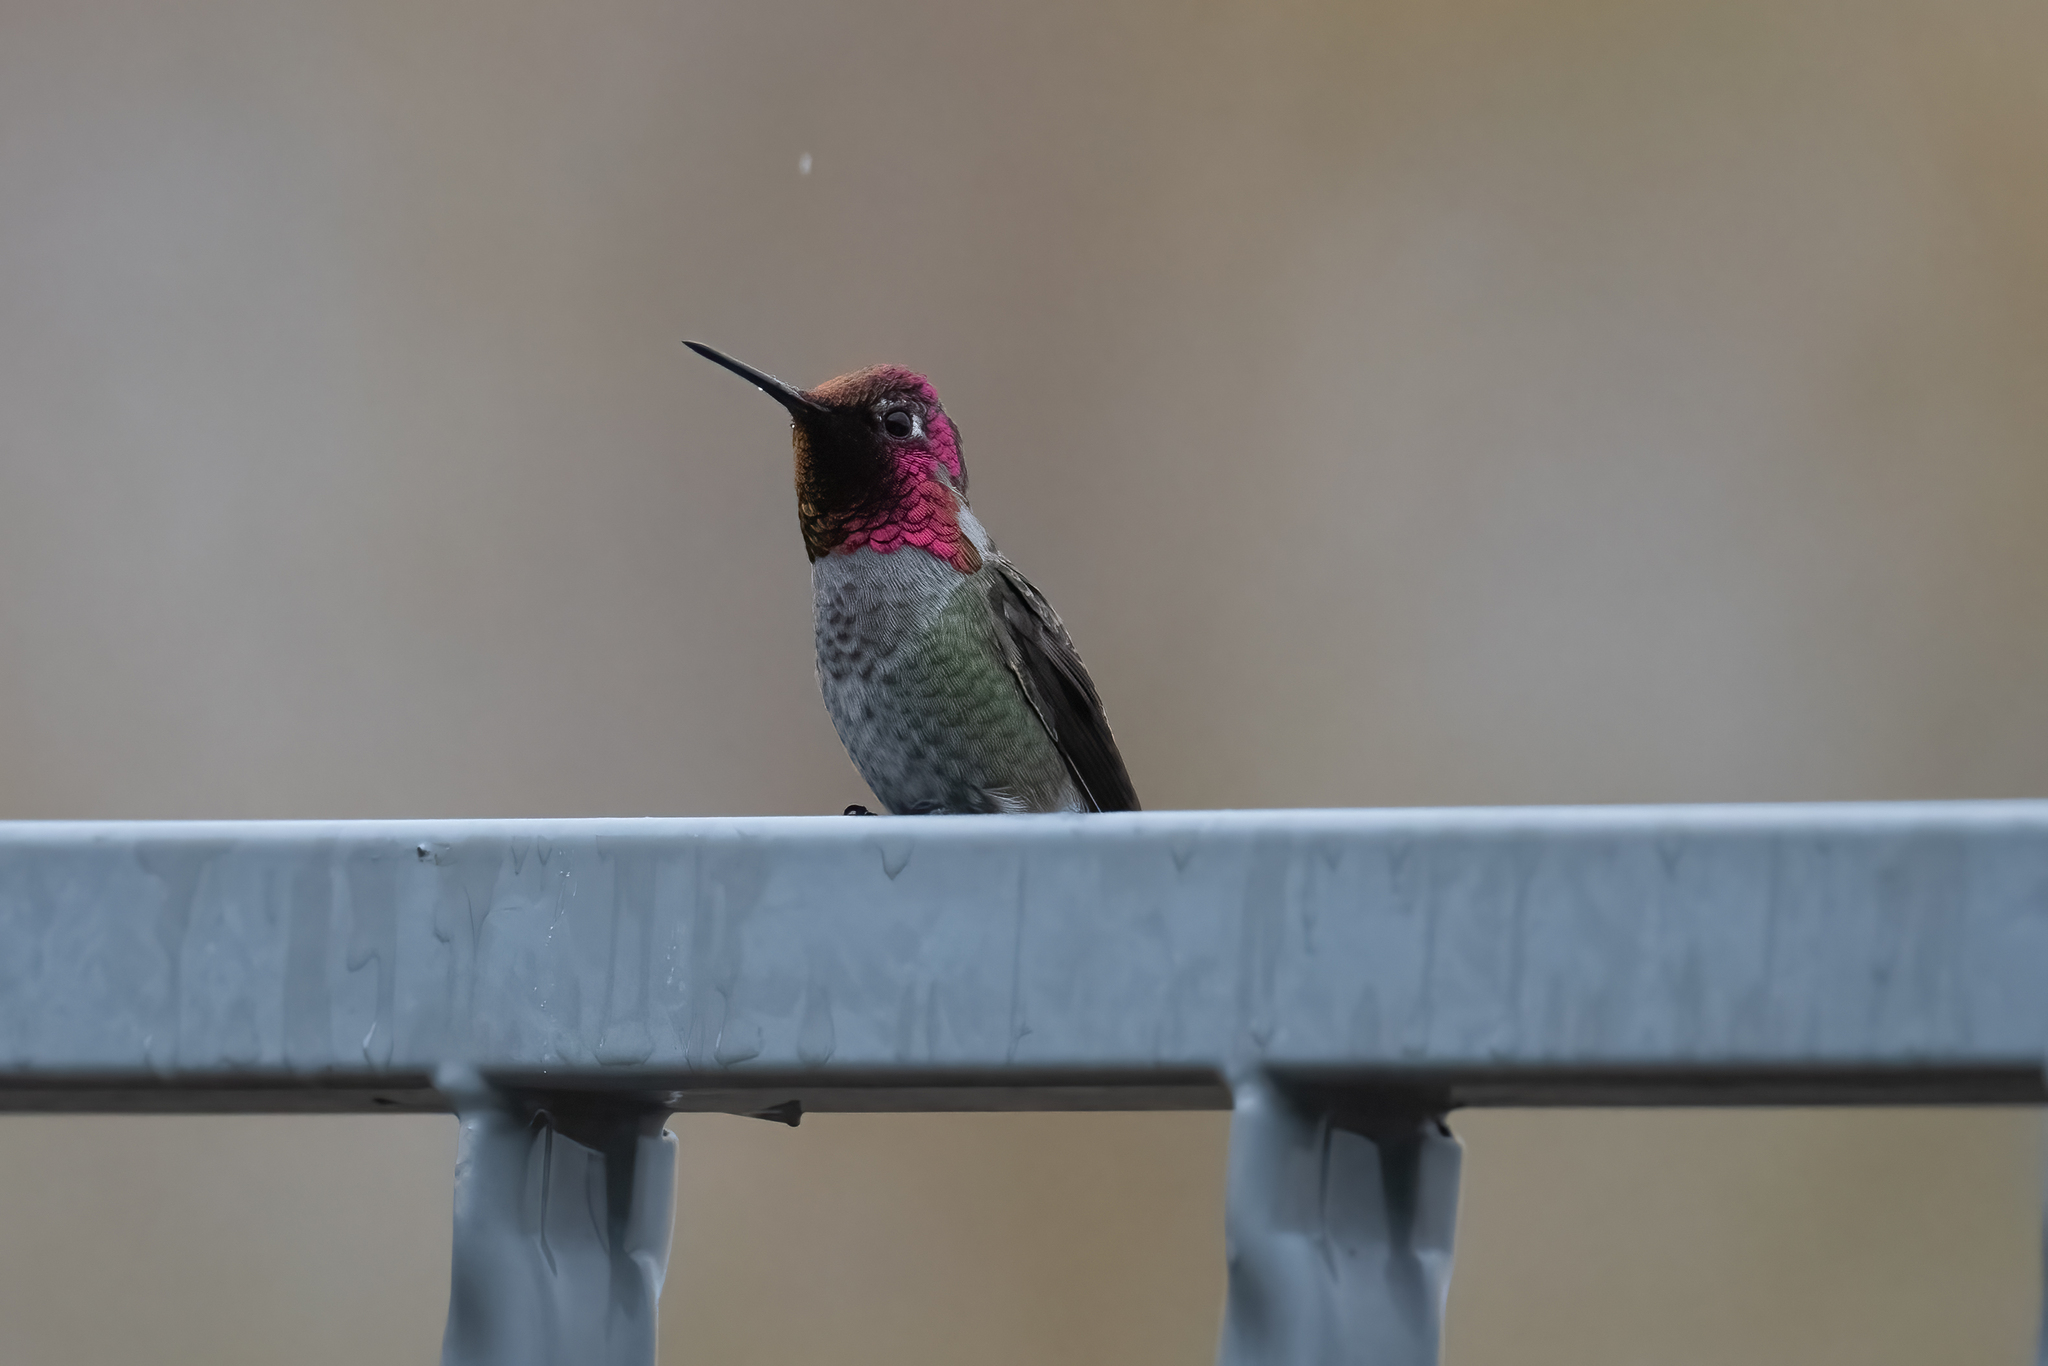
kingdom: Animalia
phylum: Chordata
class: Aves
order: Apodiformes
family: Trochilidae
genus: Calypte
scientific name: Calypte anna
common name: Anna's hummingbird
